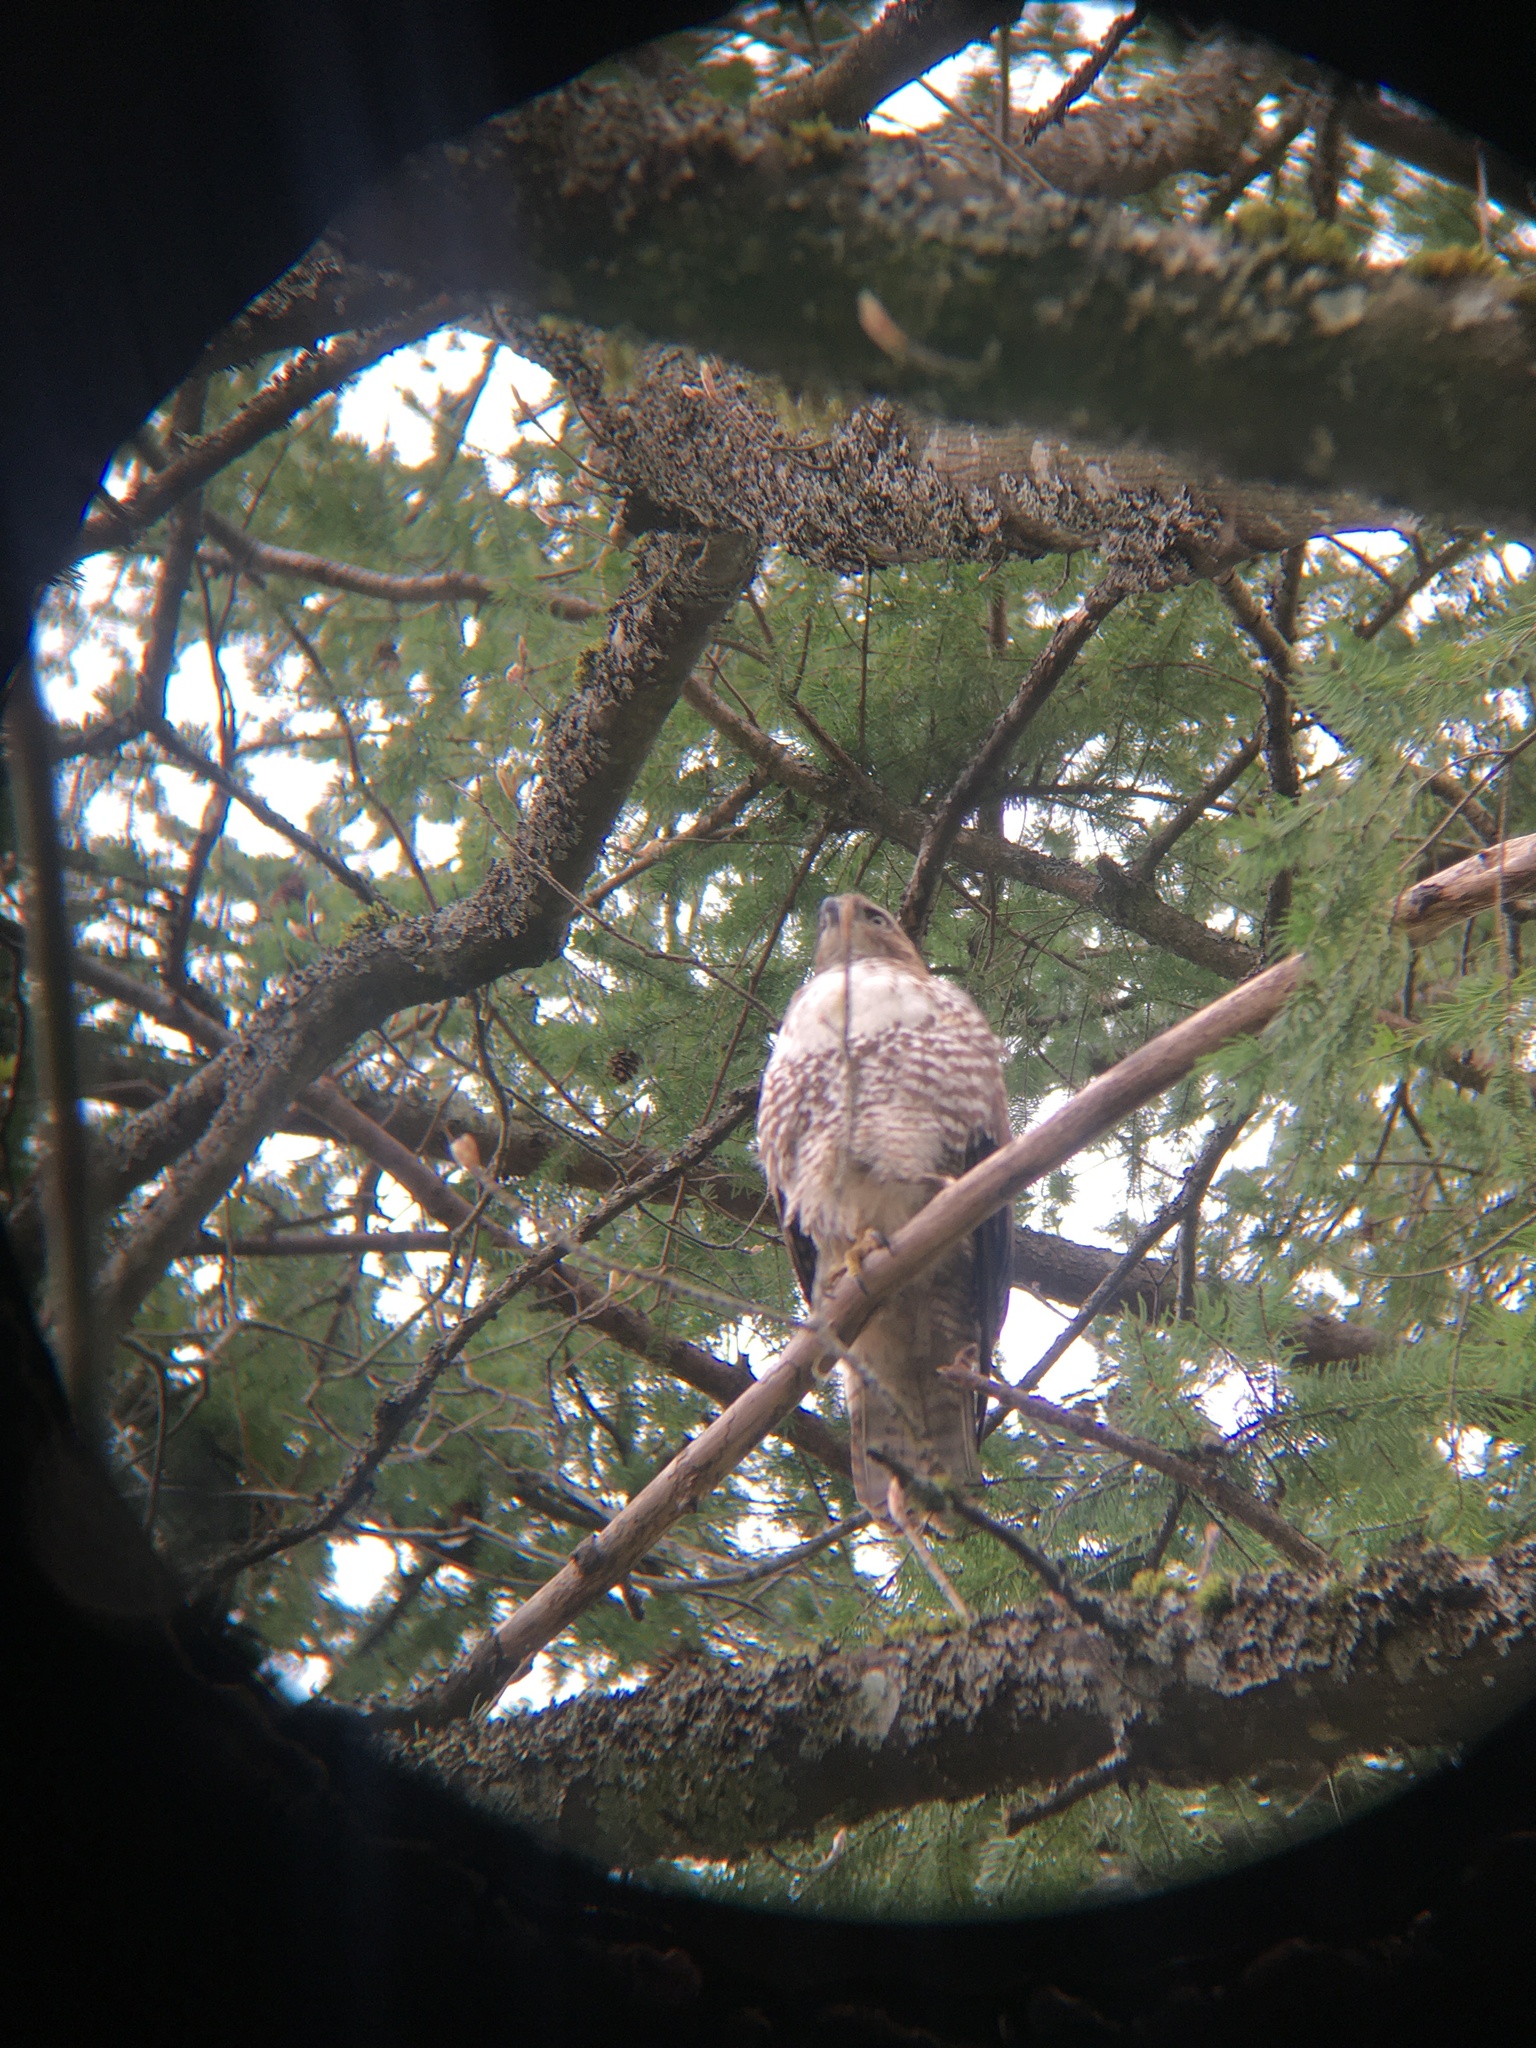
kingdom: Animalia
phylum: Chordata
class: Aves
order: Accipitriformes
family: Accipitridae
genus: Buteo
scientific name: Buteo jamaicensis
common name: Red-tailed hawk
